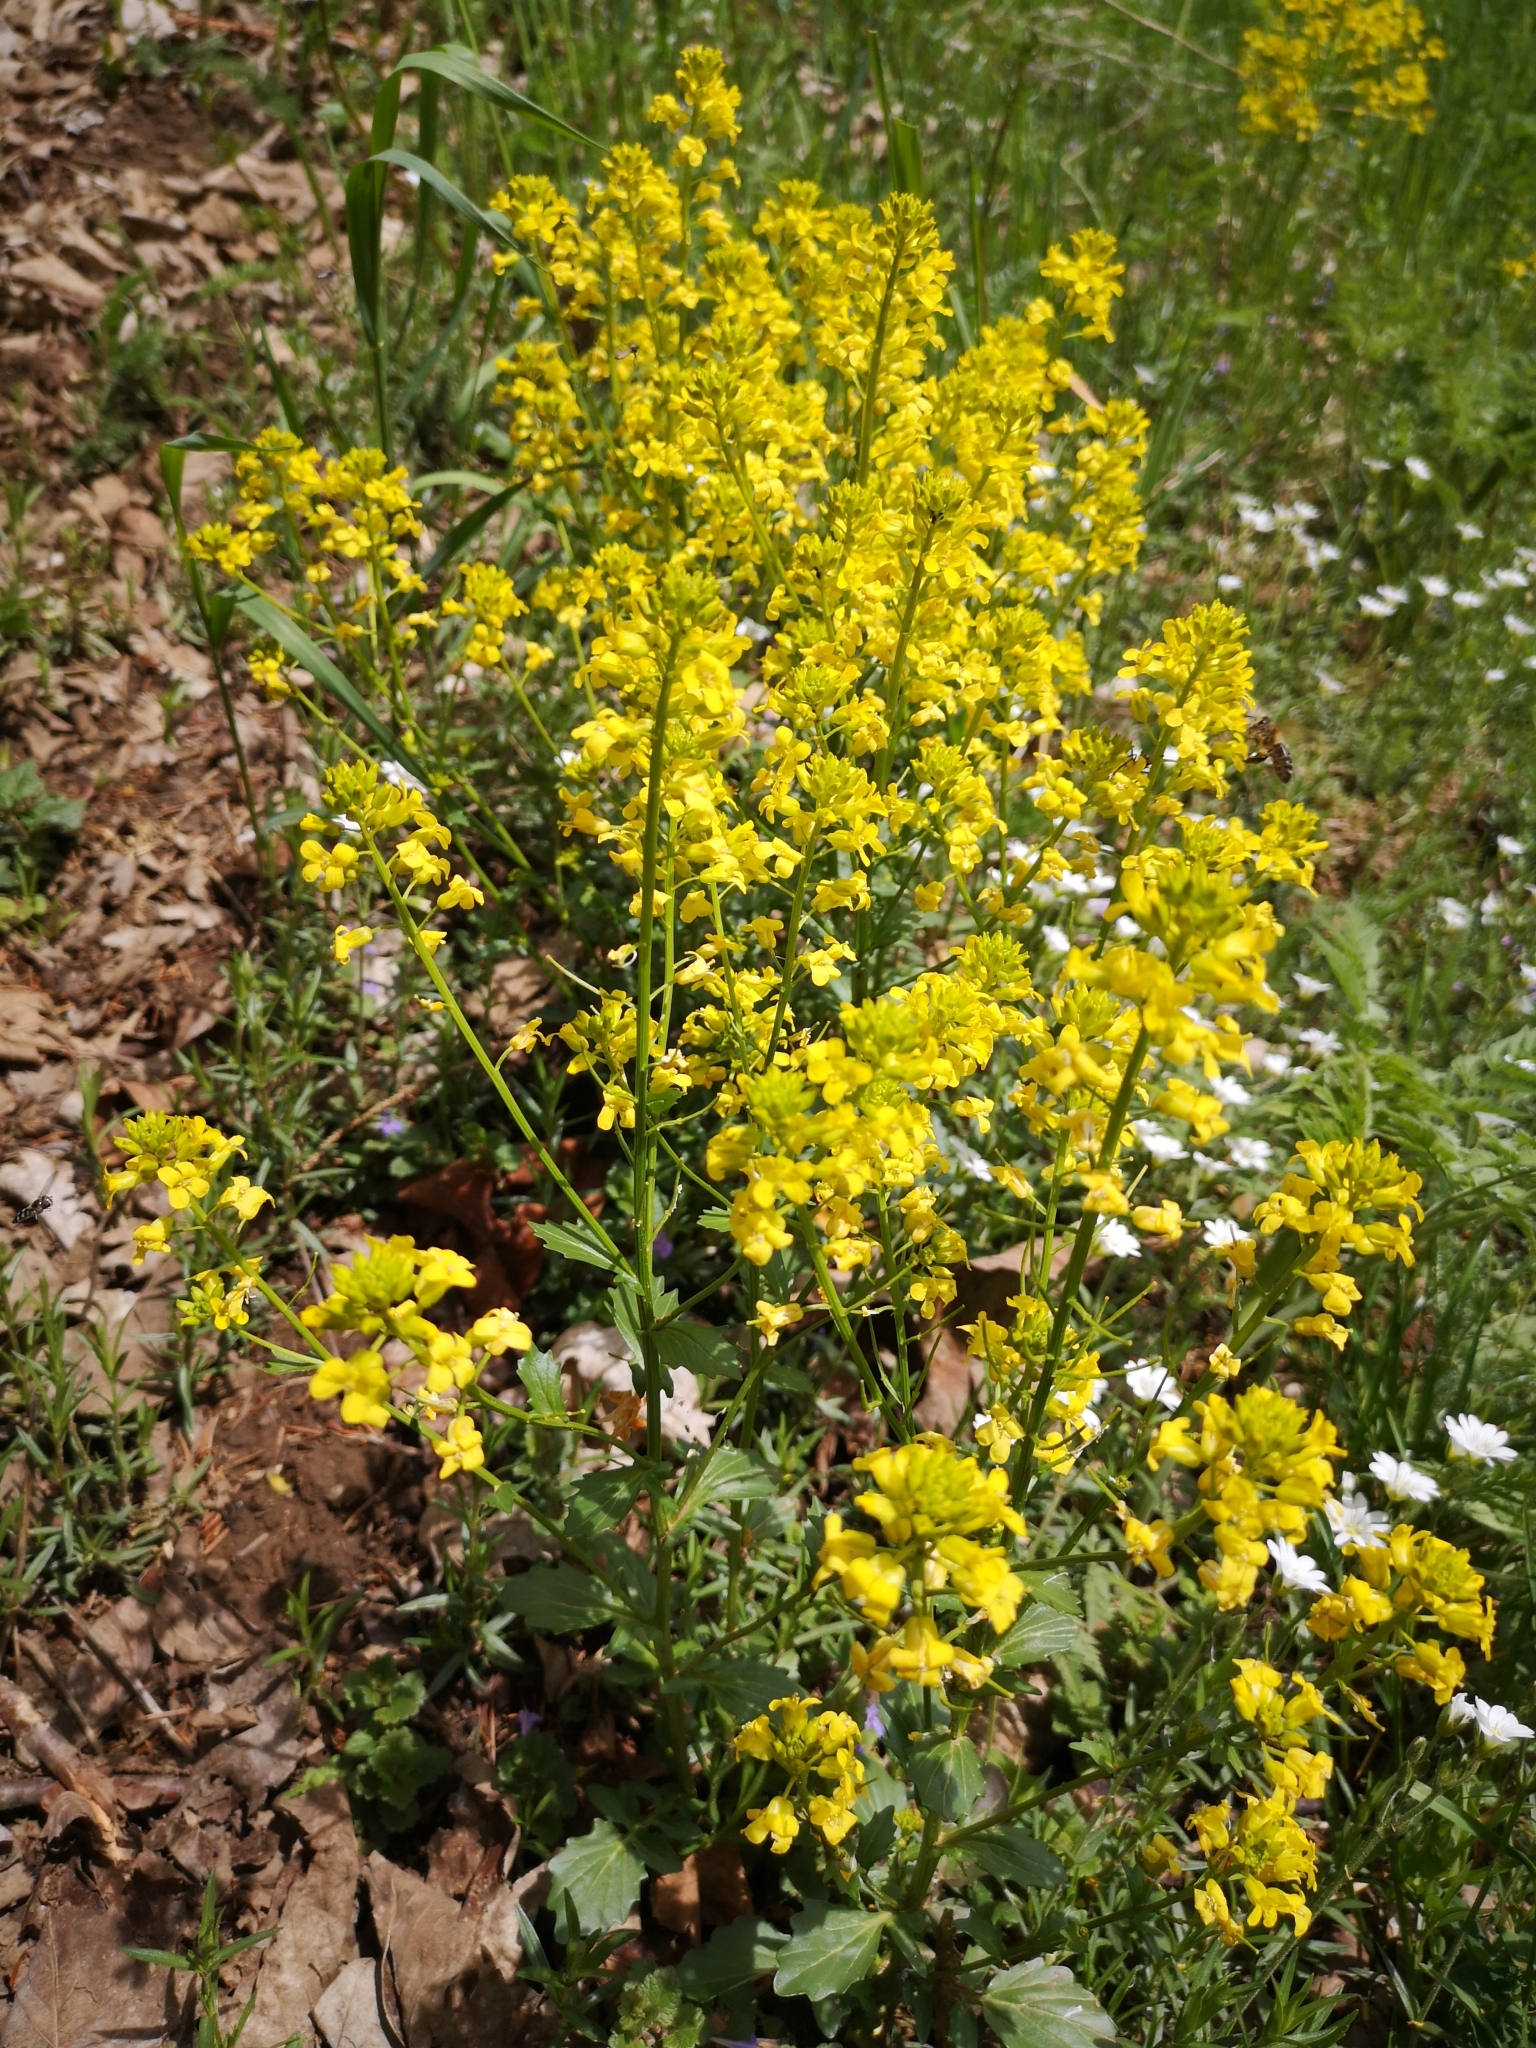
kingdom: Plantae
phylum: Tracheophyta
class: Magnoliopsida
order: Brassicales
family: Brassicaceae
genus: Barbarea
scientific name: Barbarea vulgaris
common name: Cressy-greens
